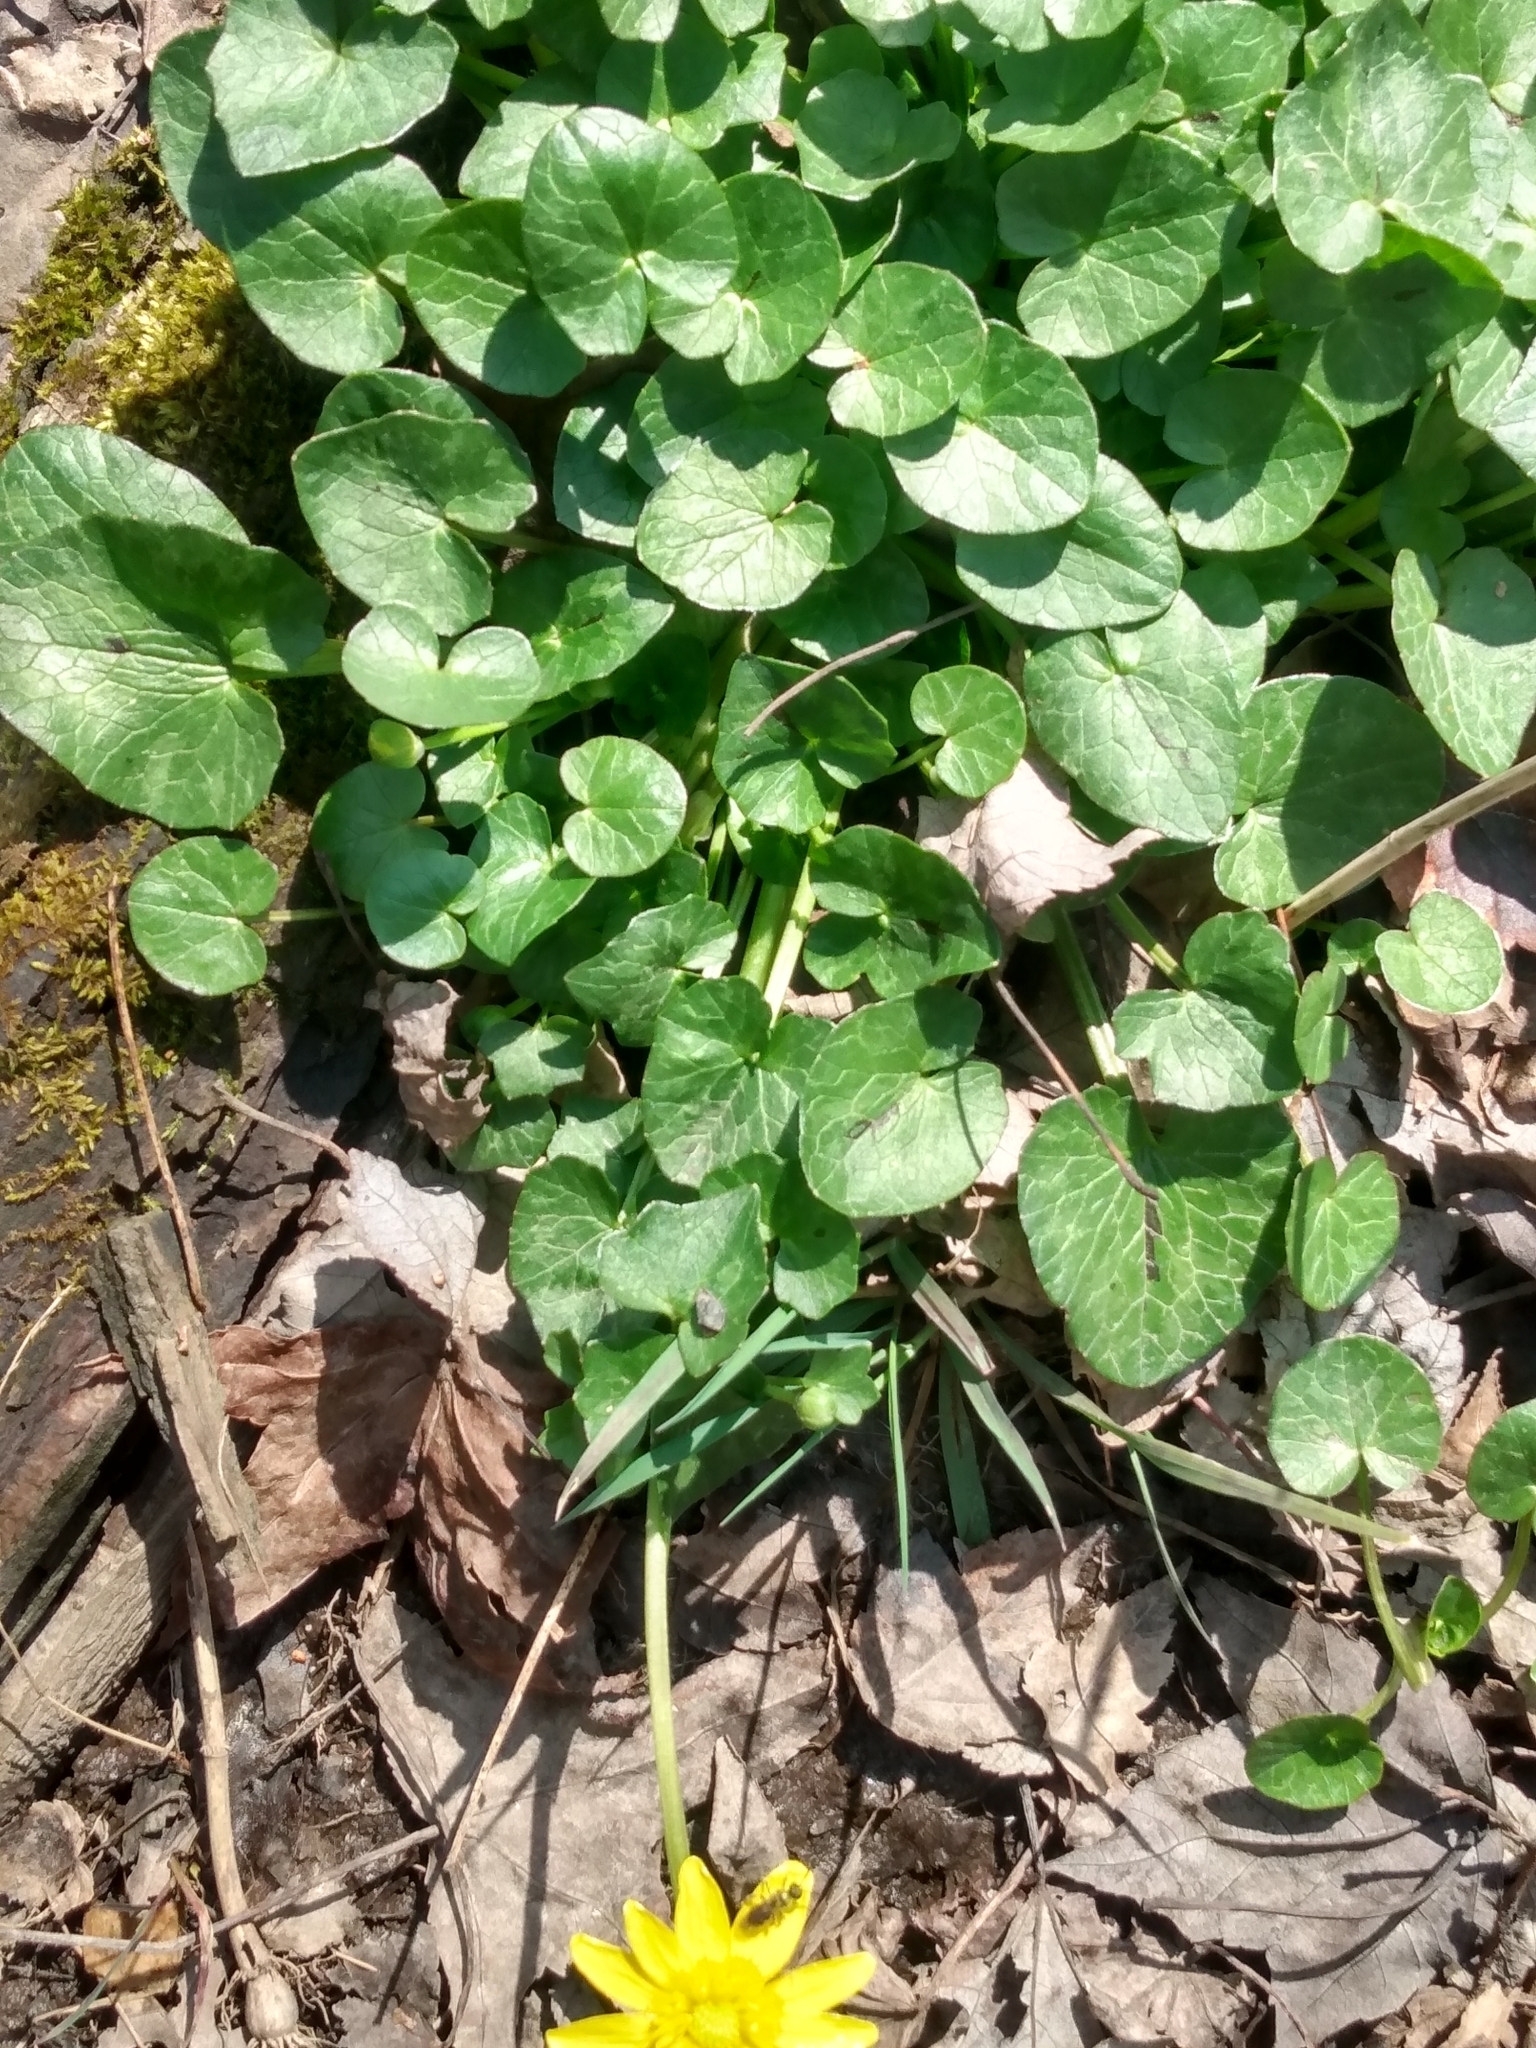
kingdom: Plantae
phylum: Tracheophyta
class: Magnoliopsida
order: Ranunculales
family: Ranunculaceae
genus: Ficaria
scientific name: Ficaria verna
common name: Lesser celandine
